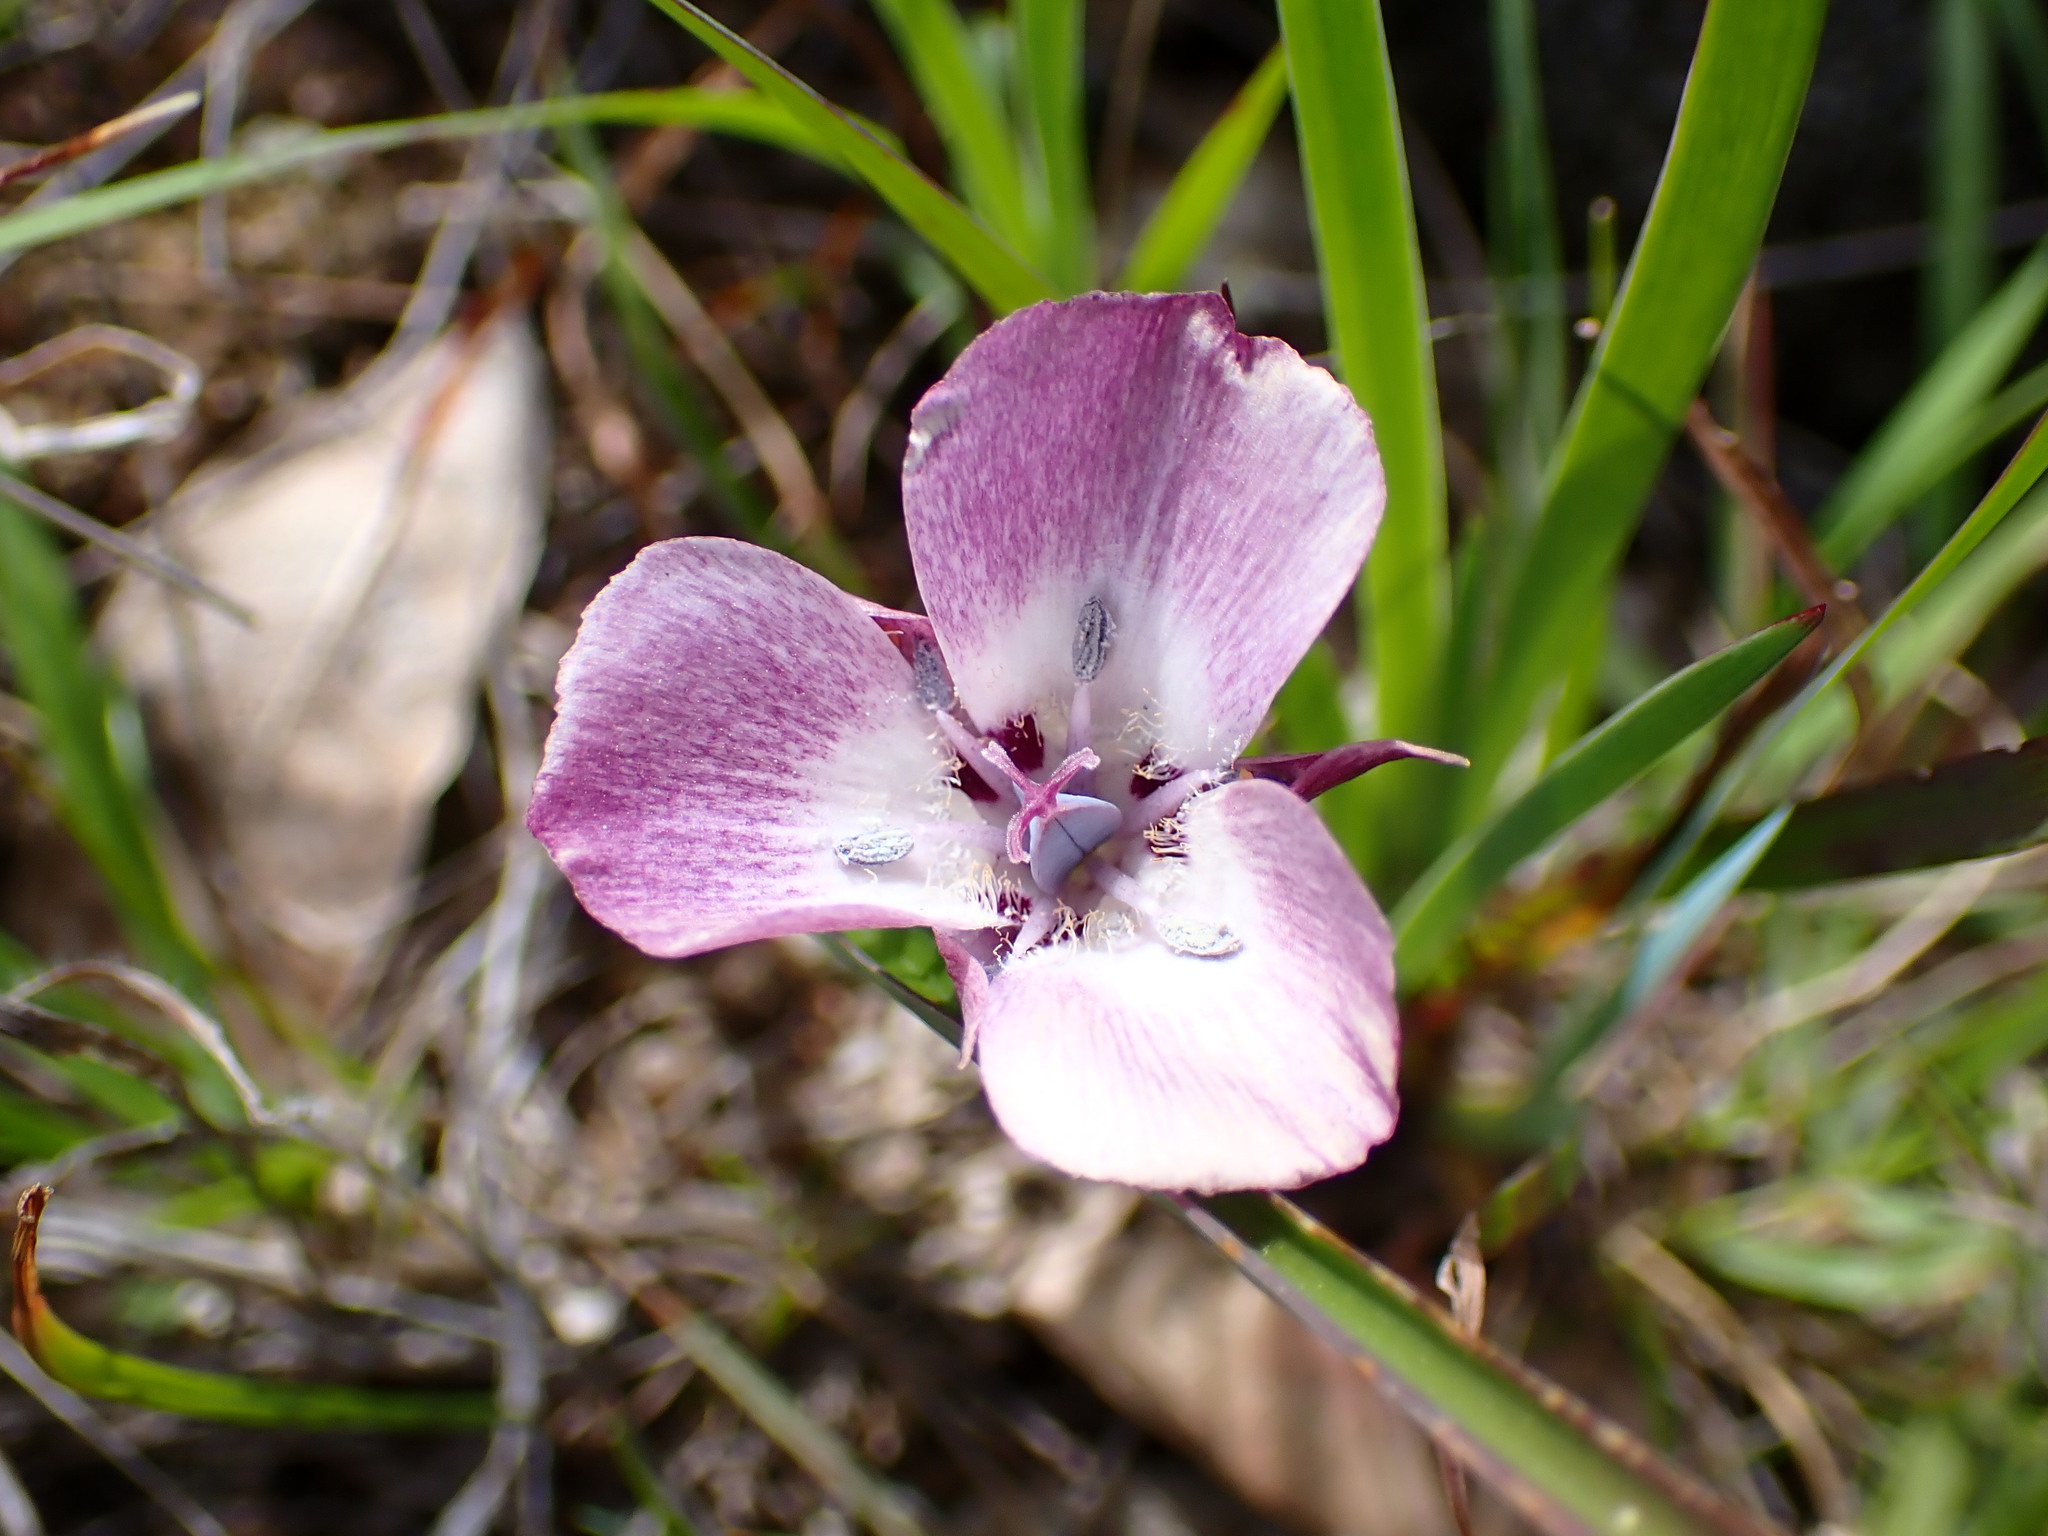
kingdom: Plantae
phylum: Tracheophyta
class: Liliopsida
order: Liliales
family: Liliaceae
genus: Calochortus
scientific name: Calochortus umbellatus
